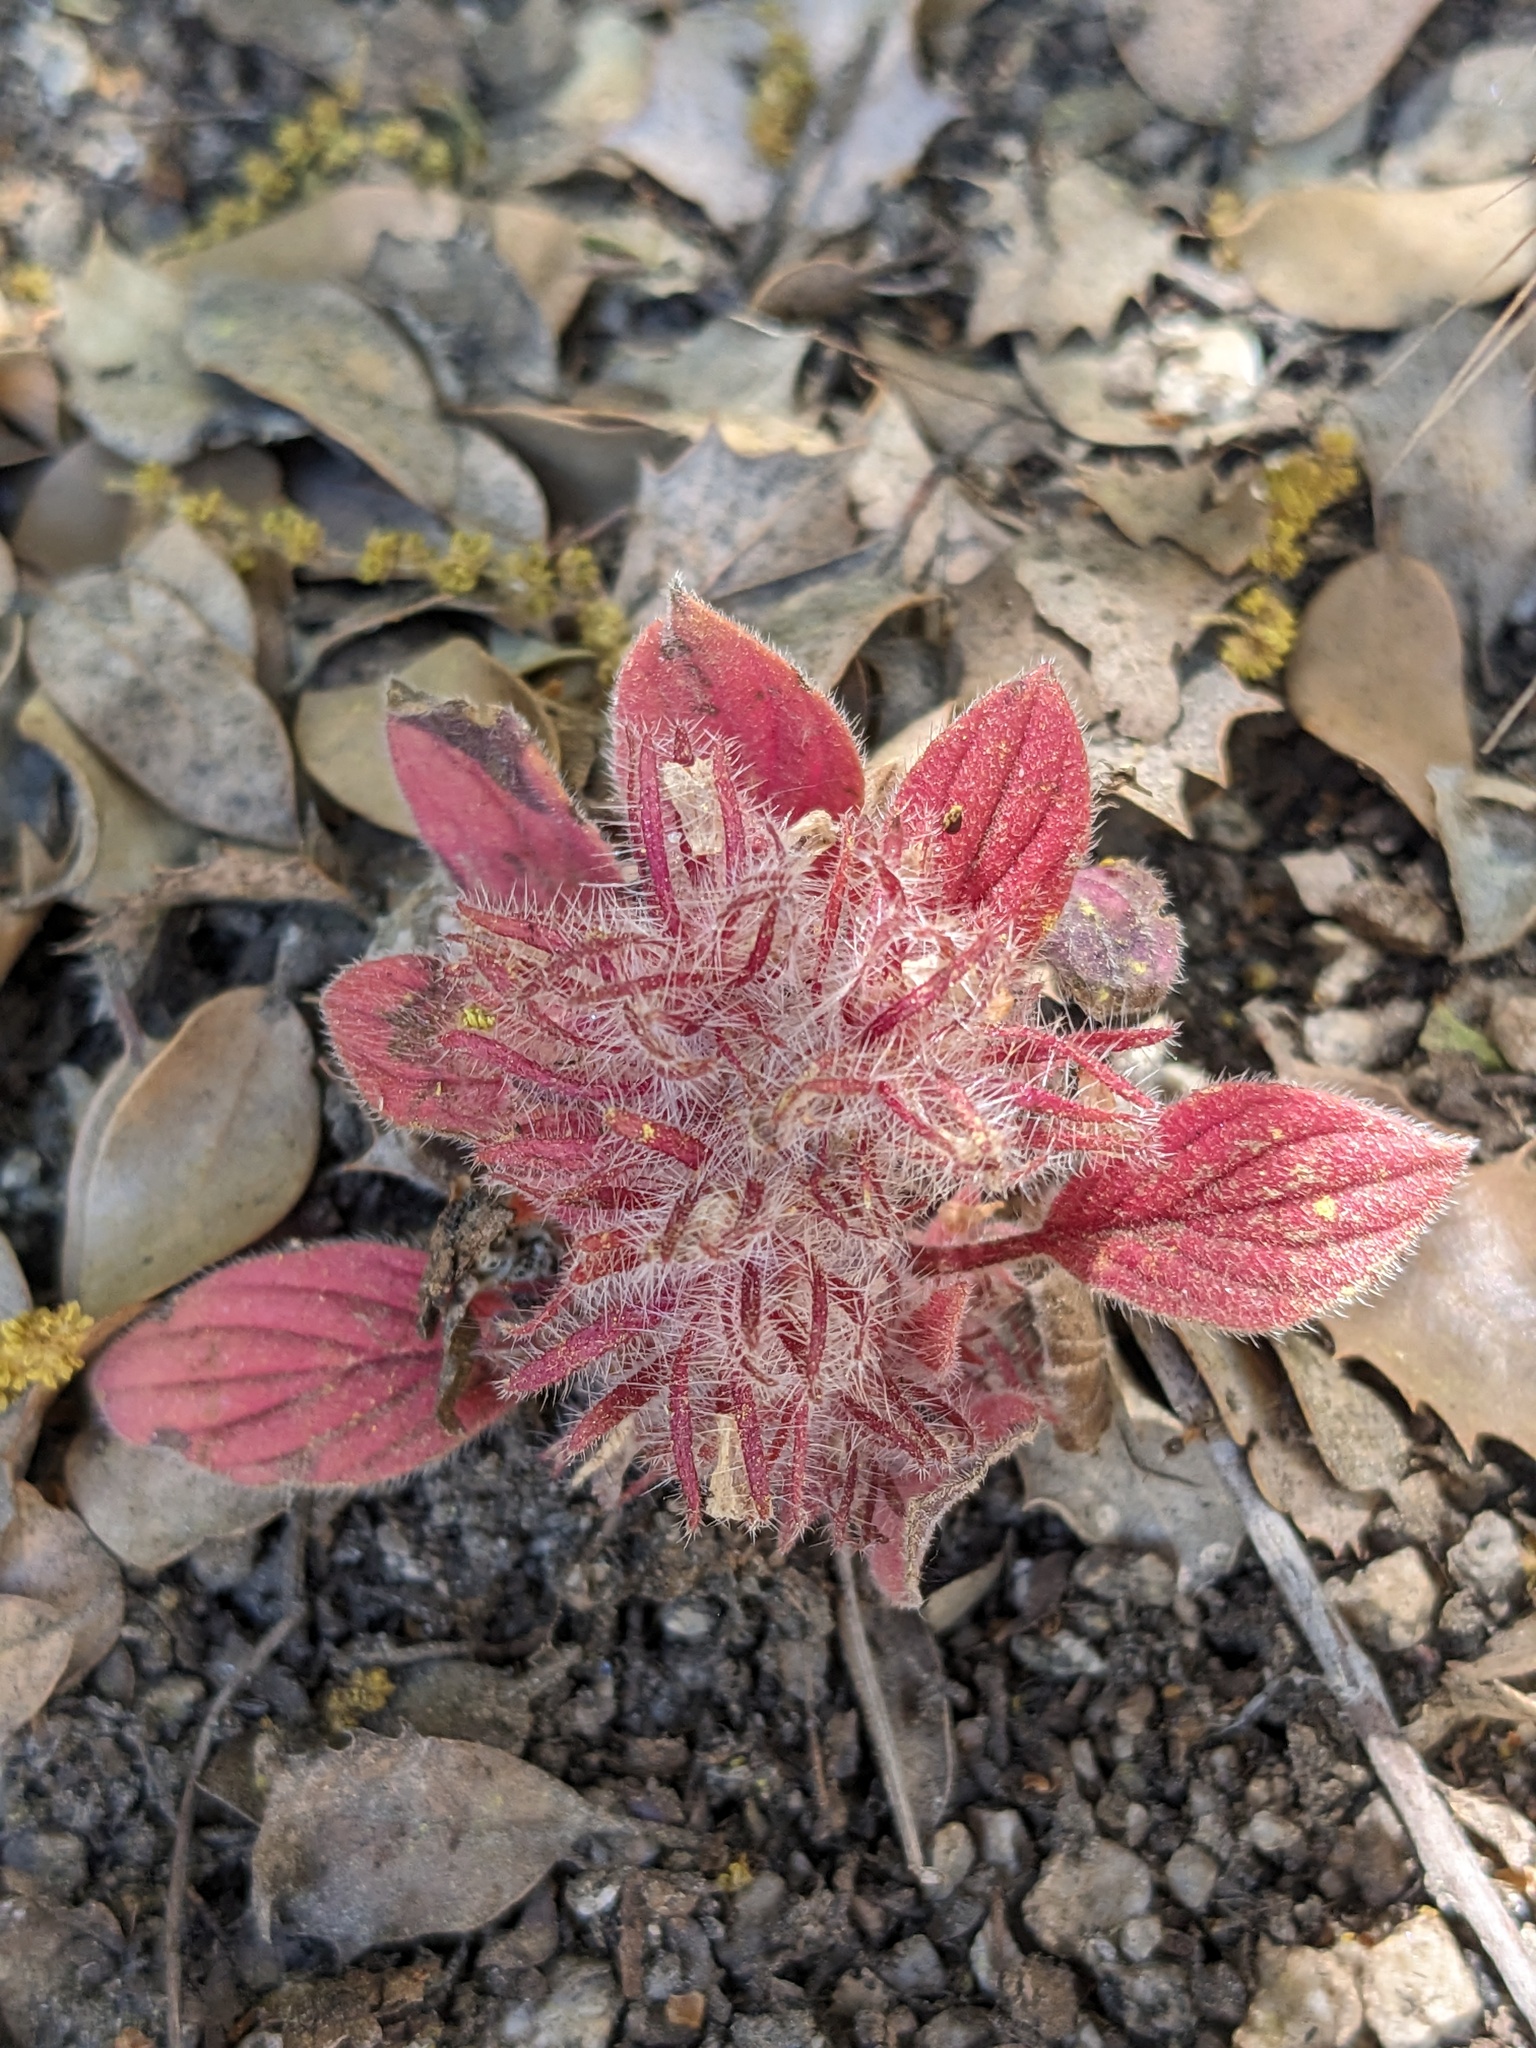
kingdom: Plantae
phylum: Tracheophyta
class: Magnoliopsida
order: Boraginales
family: Hydrophyllaceae
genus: Phacelia
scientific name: Phacelia novenmillensis
